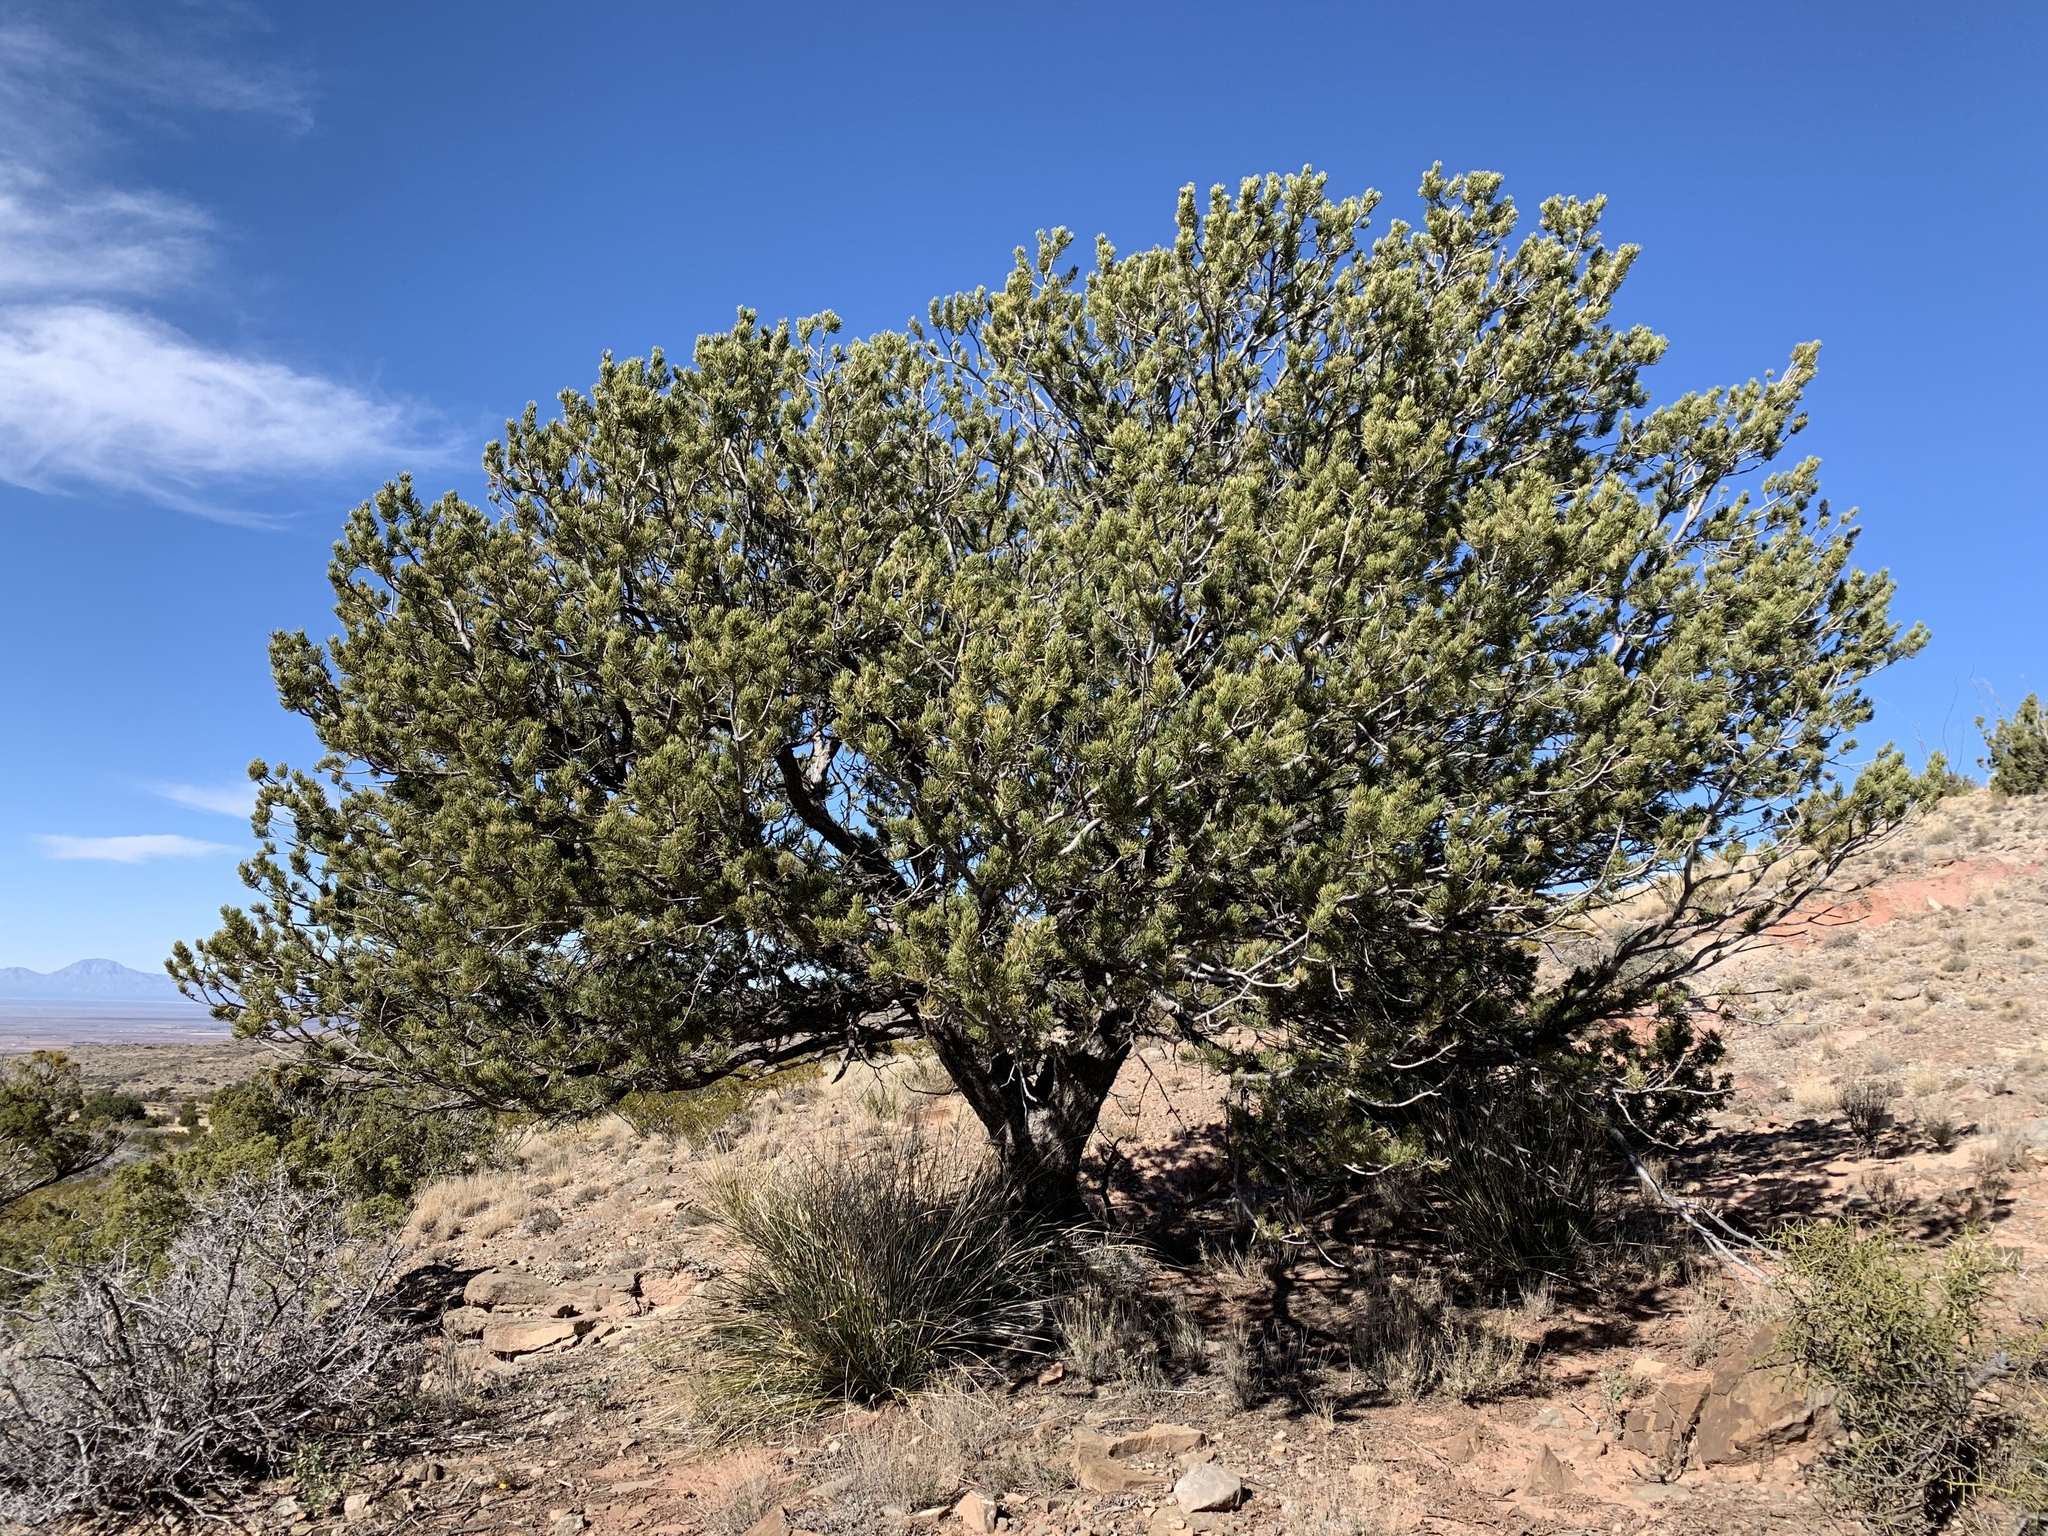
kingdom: Plantae
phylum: Tracheophyta
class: Pinopsida
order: Pinales
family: Pinaceae
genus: Pinus
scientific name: Pinus edulis
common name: Colorado pinyon
